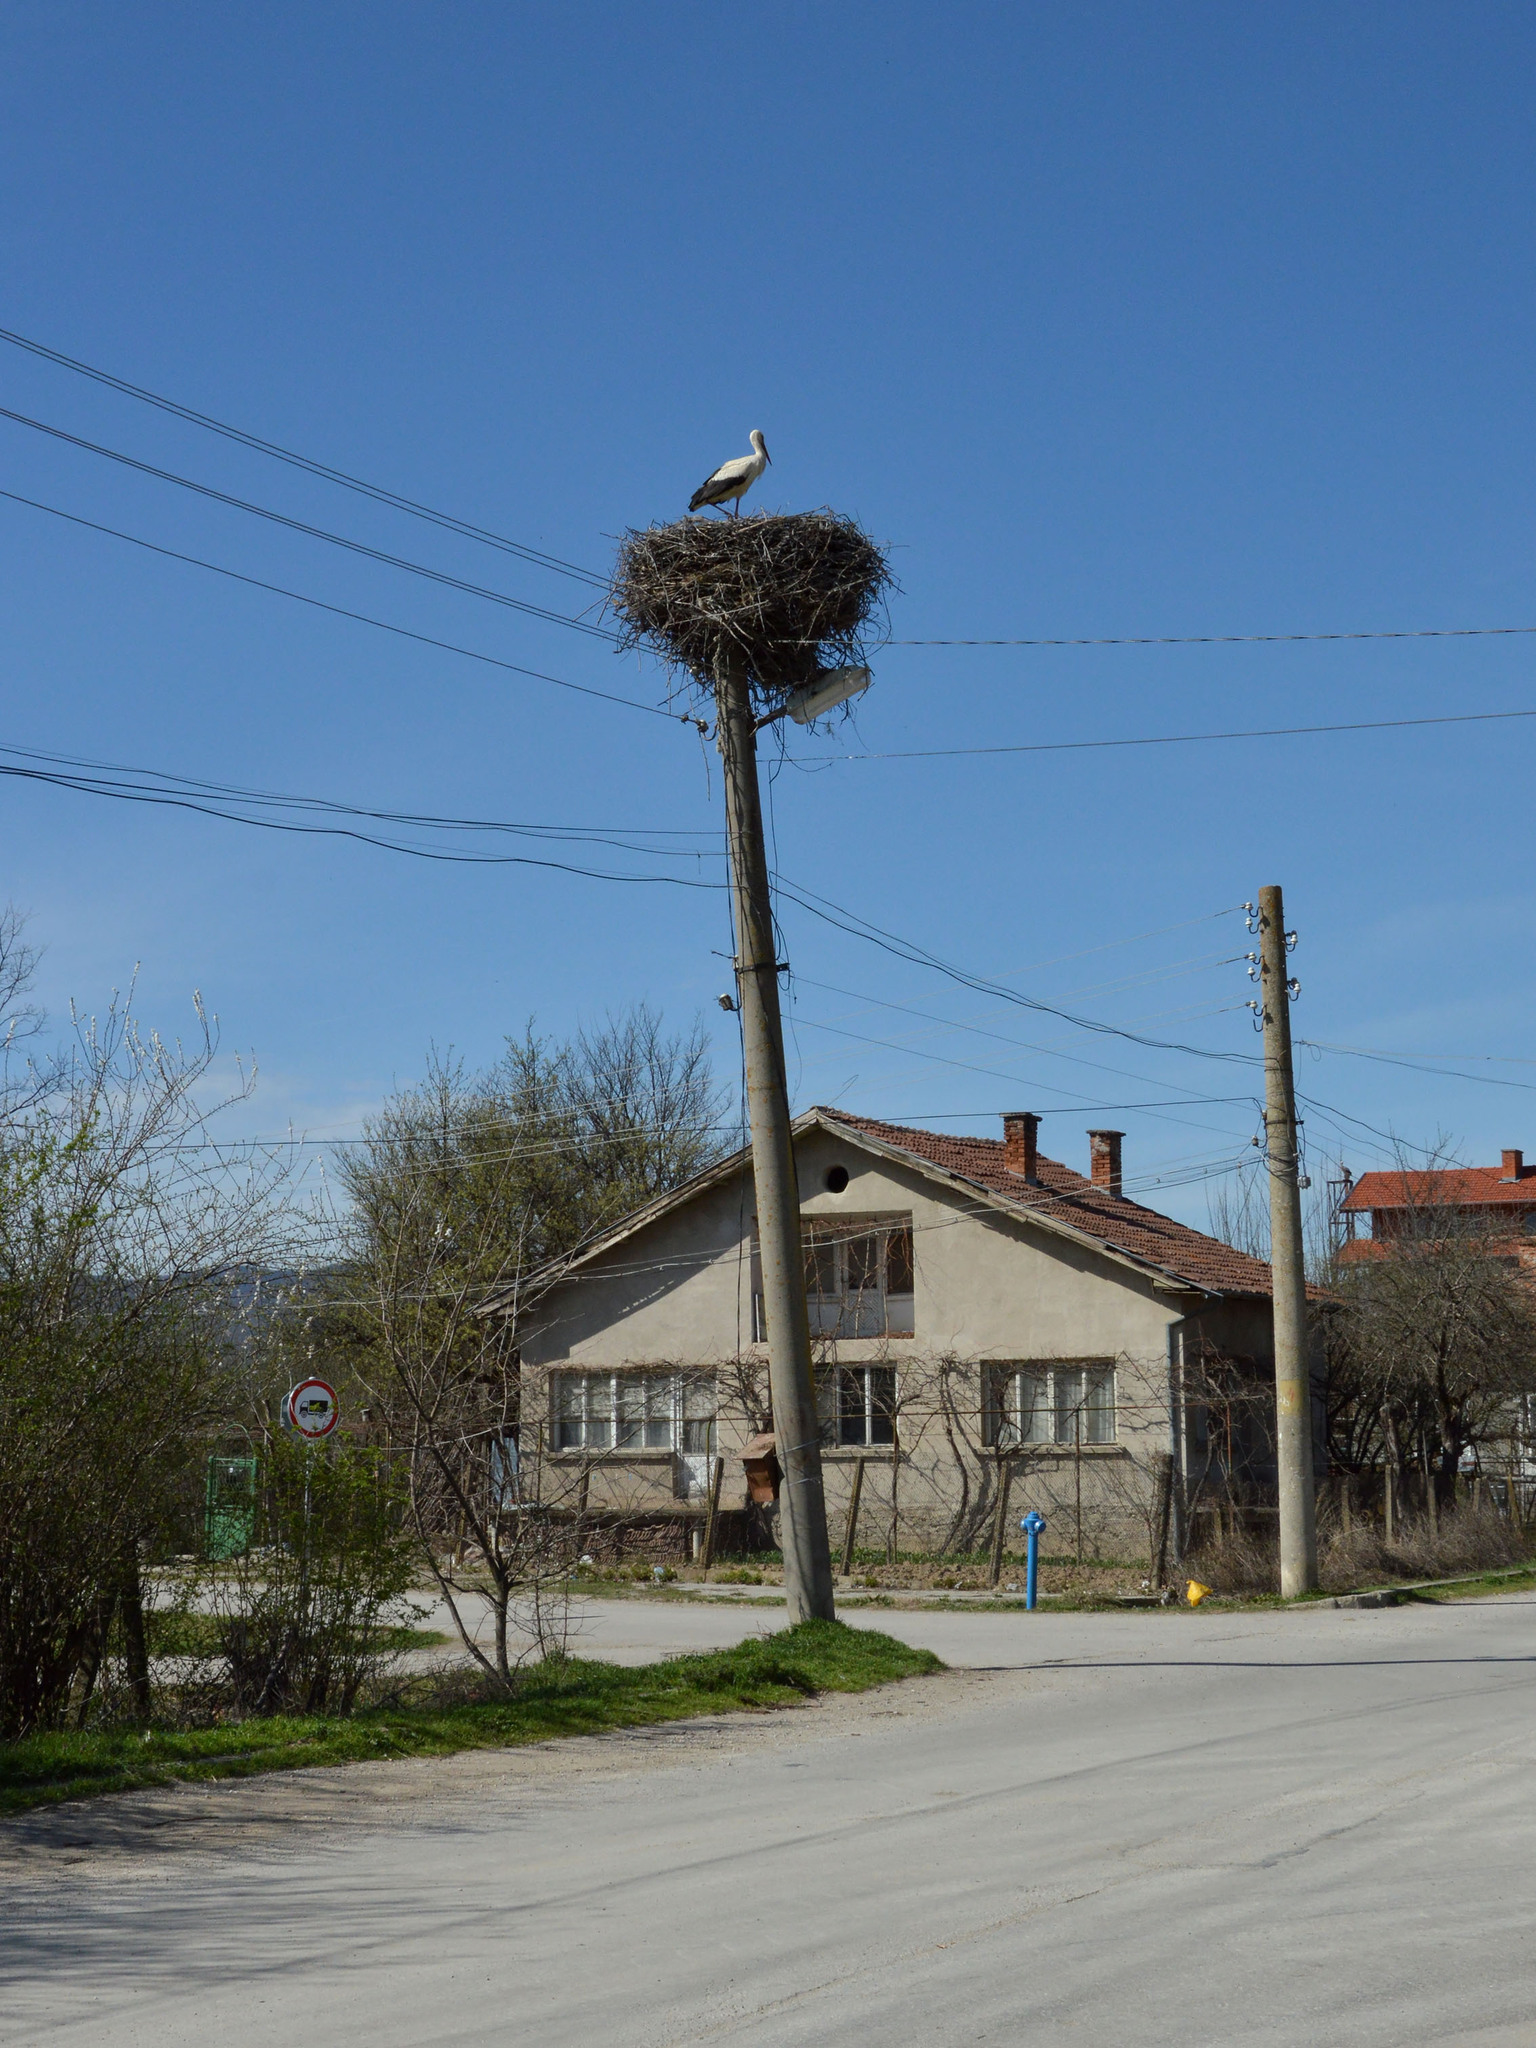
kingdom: Animalia
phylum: Chordata
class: Aves
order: Ciconiiformes
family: Ciconiidae
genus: Ciconia
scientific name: Ciconia ciconia
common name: White stork
